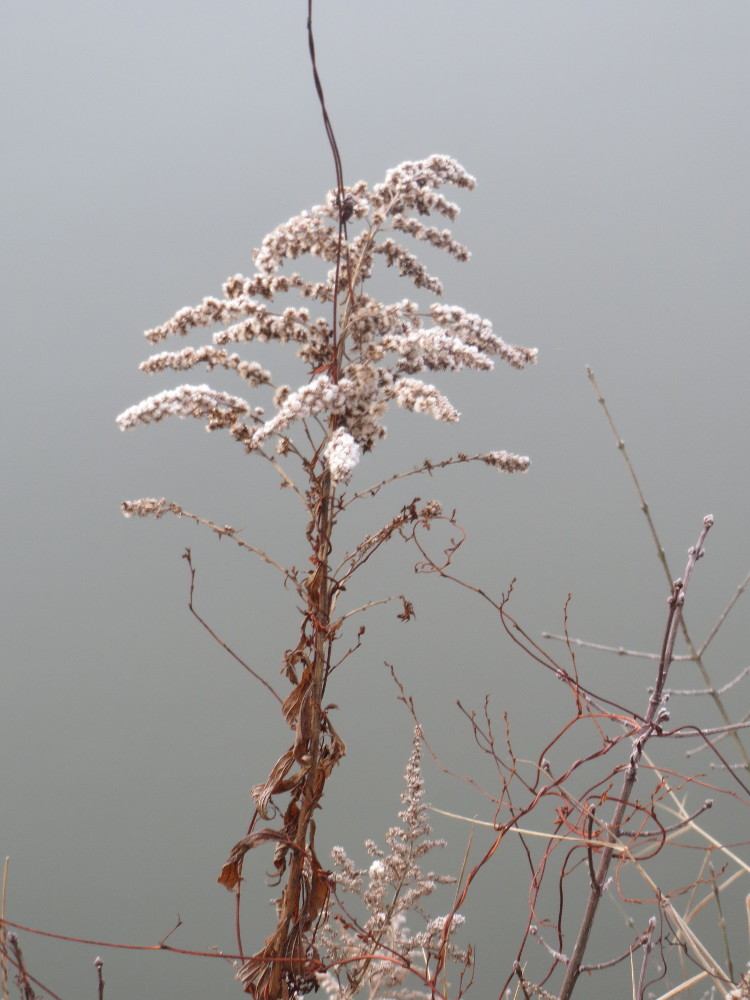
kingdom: Plantae
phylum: Tracheophyta
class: Magnoliopsida
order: Asterales
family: Asteraceae
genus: Solidago
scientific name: Solidago canadensis
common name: Canada goldenrod
